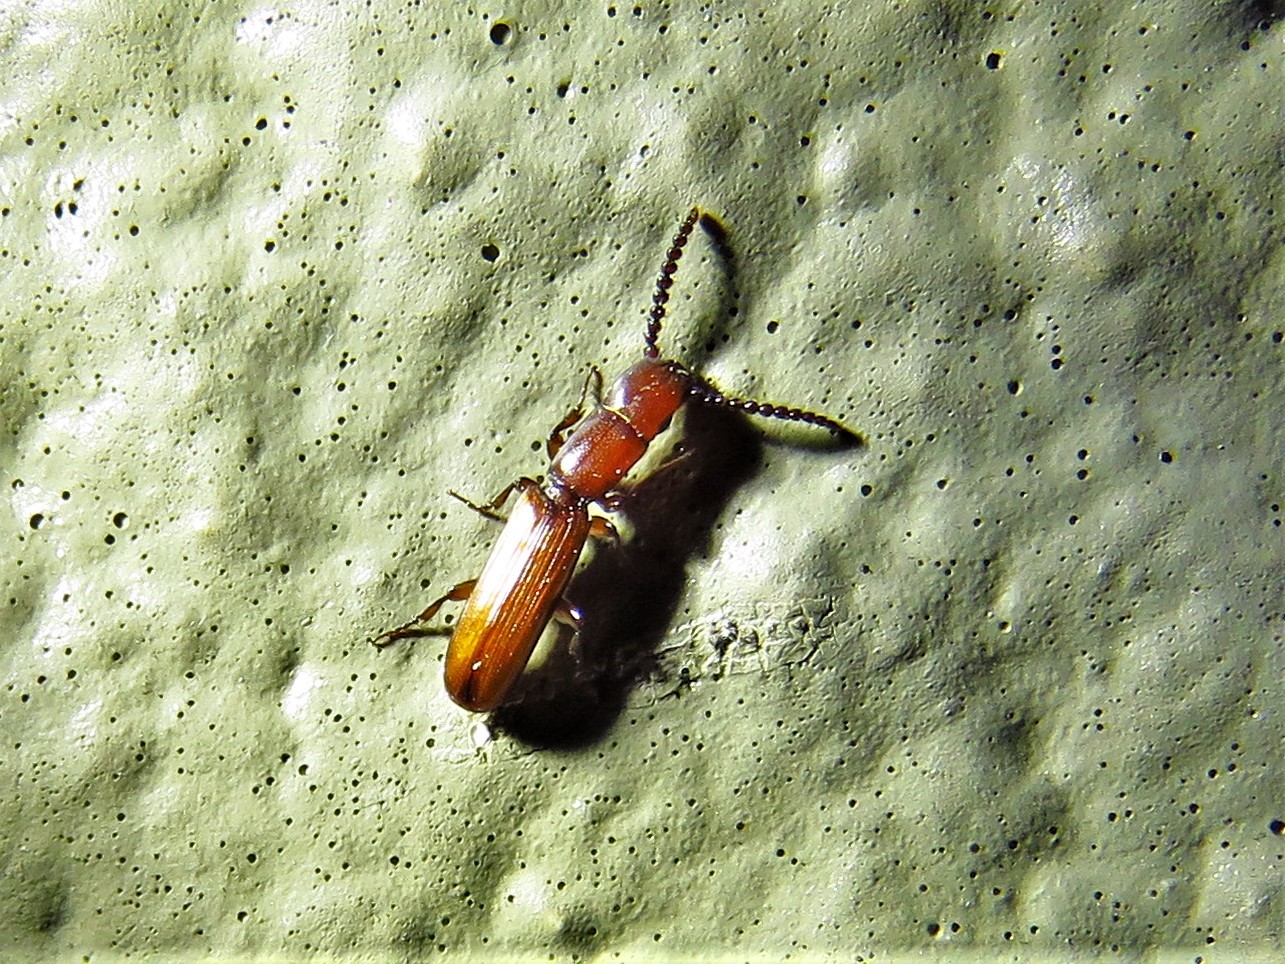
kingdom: Animalia
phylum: Arthropoda
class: Insecta
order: Coleoptera
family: Passandridae
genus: Taphroscelidia
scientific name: Taphroscelidia linearis
